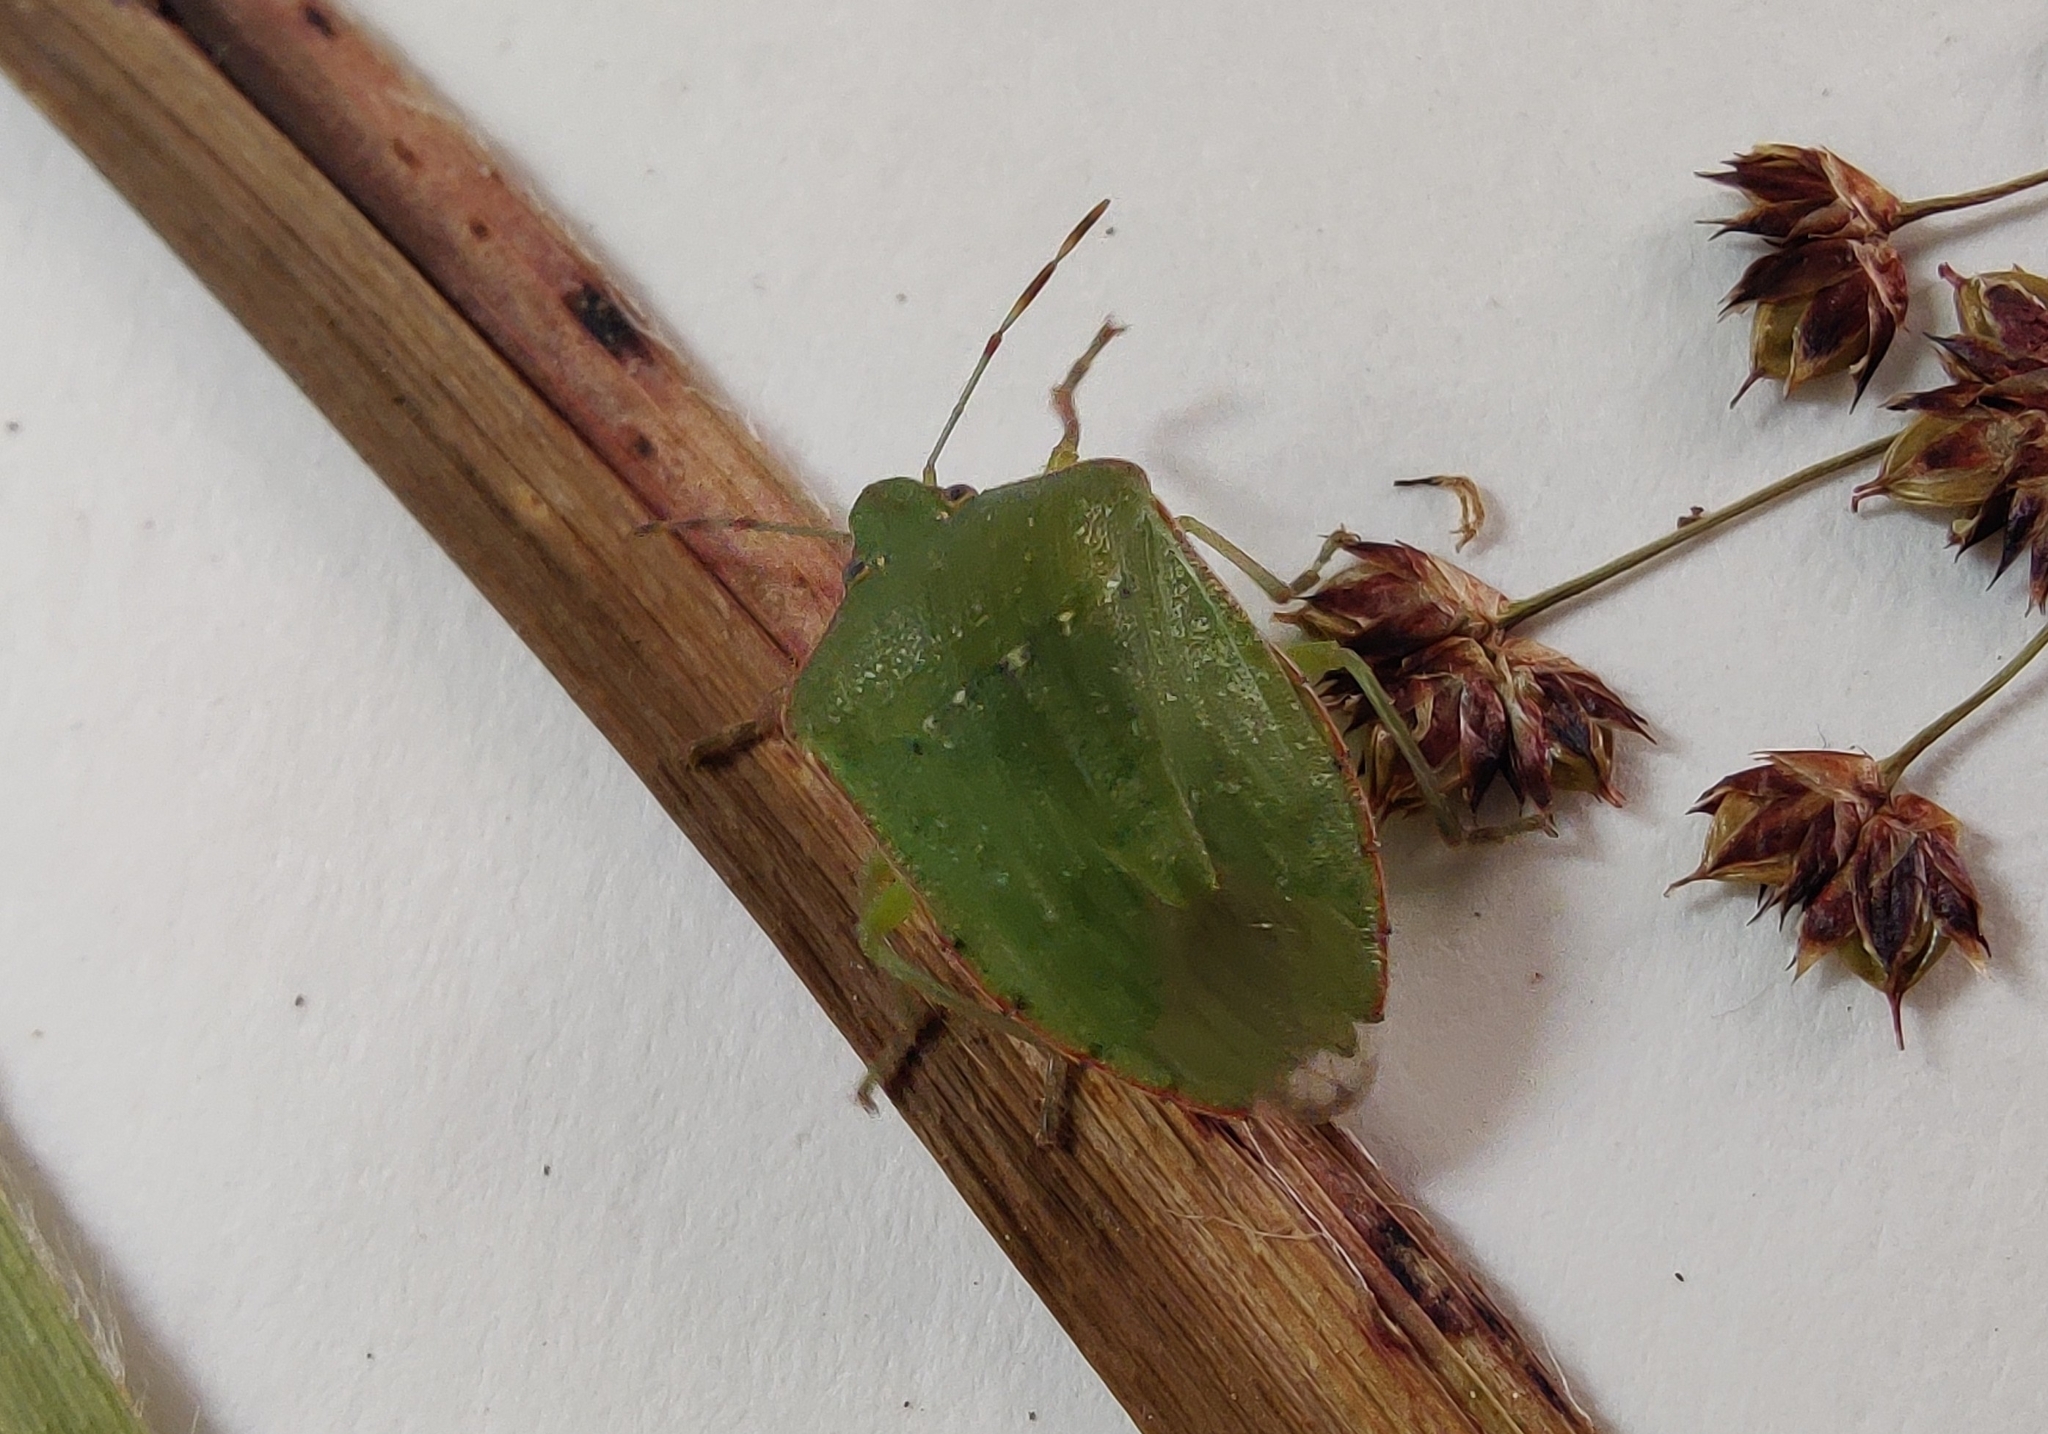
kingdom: Animalia
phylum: Arthropoda
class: Insecta
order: Hemiptera
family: Pentatomidae
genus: Nezara
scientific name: Nezara viridula
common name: Southern green stink bug
